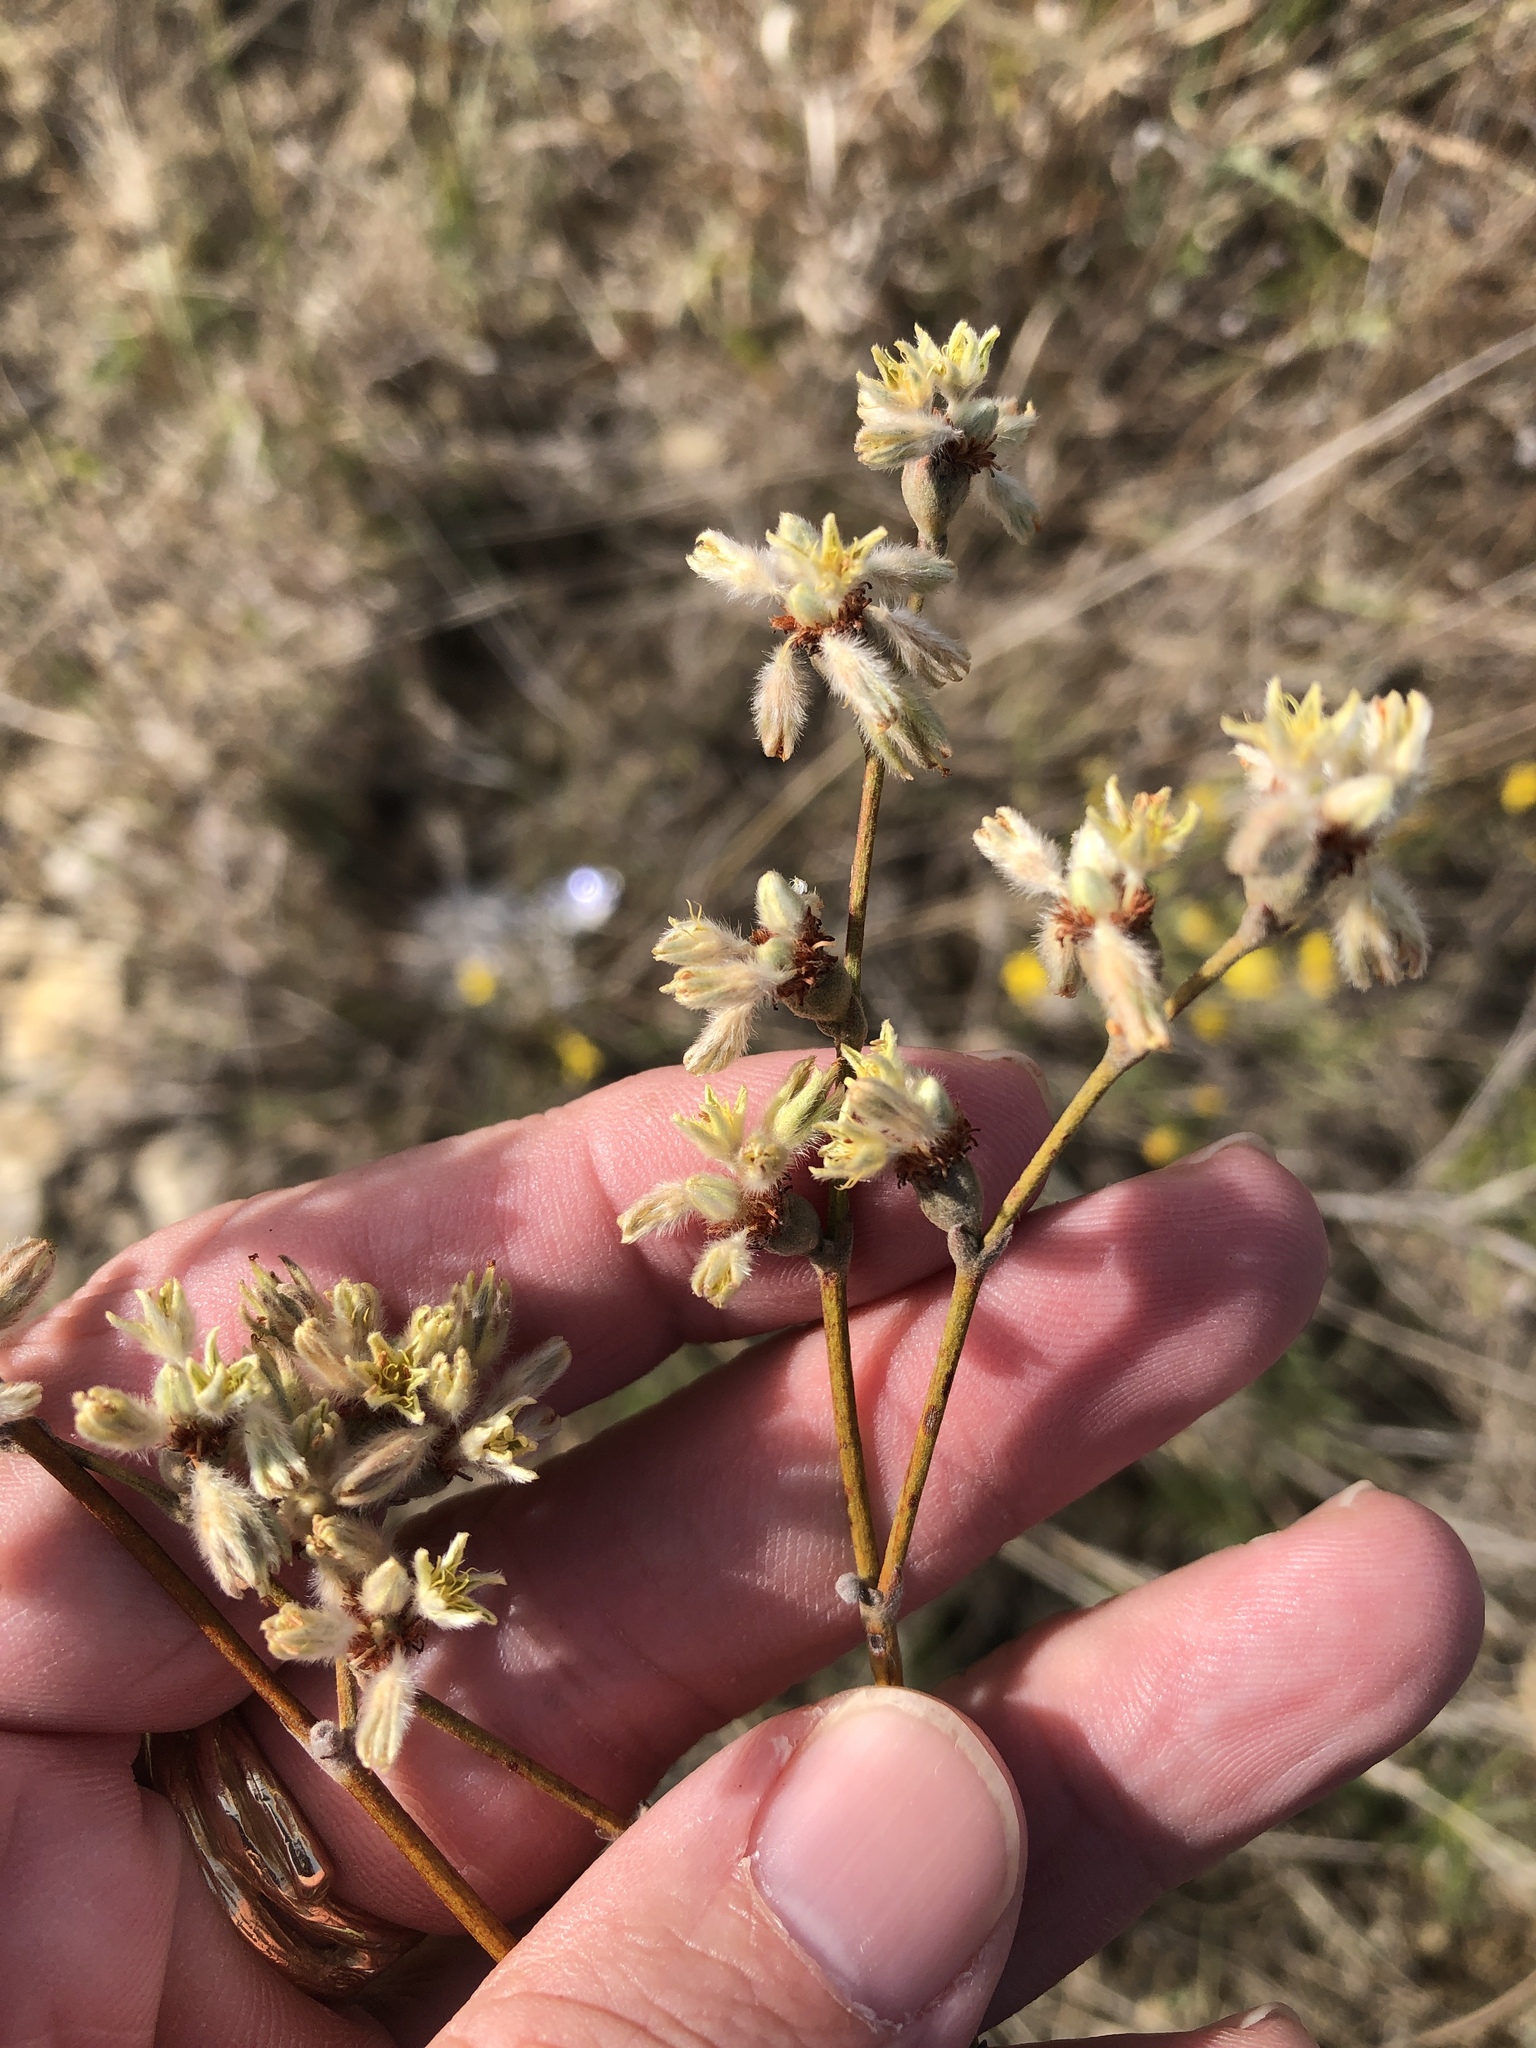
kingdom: Plantae
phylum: Tracheophyta
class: Magnoliopsida
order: Caryophyllales
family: Polygonaceae
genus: Eriogonum
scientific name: Eriogonum longifolium
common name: Longleaf wild buckwheat
